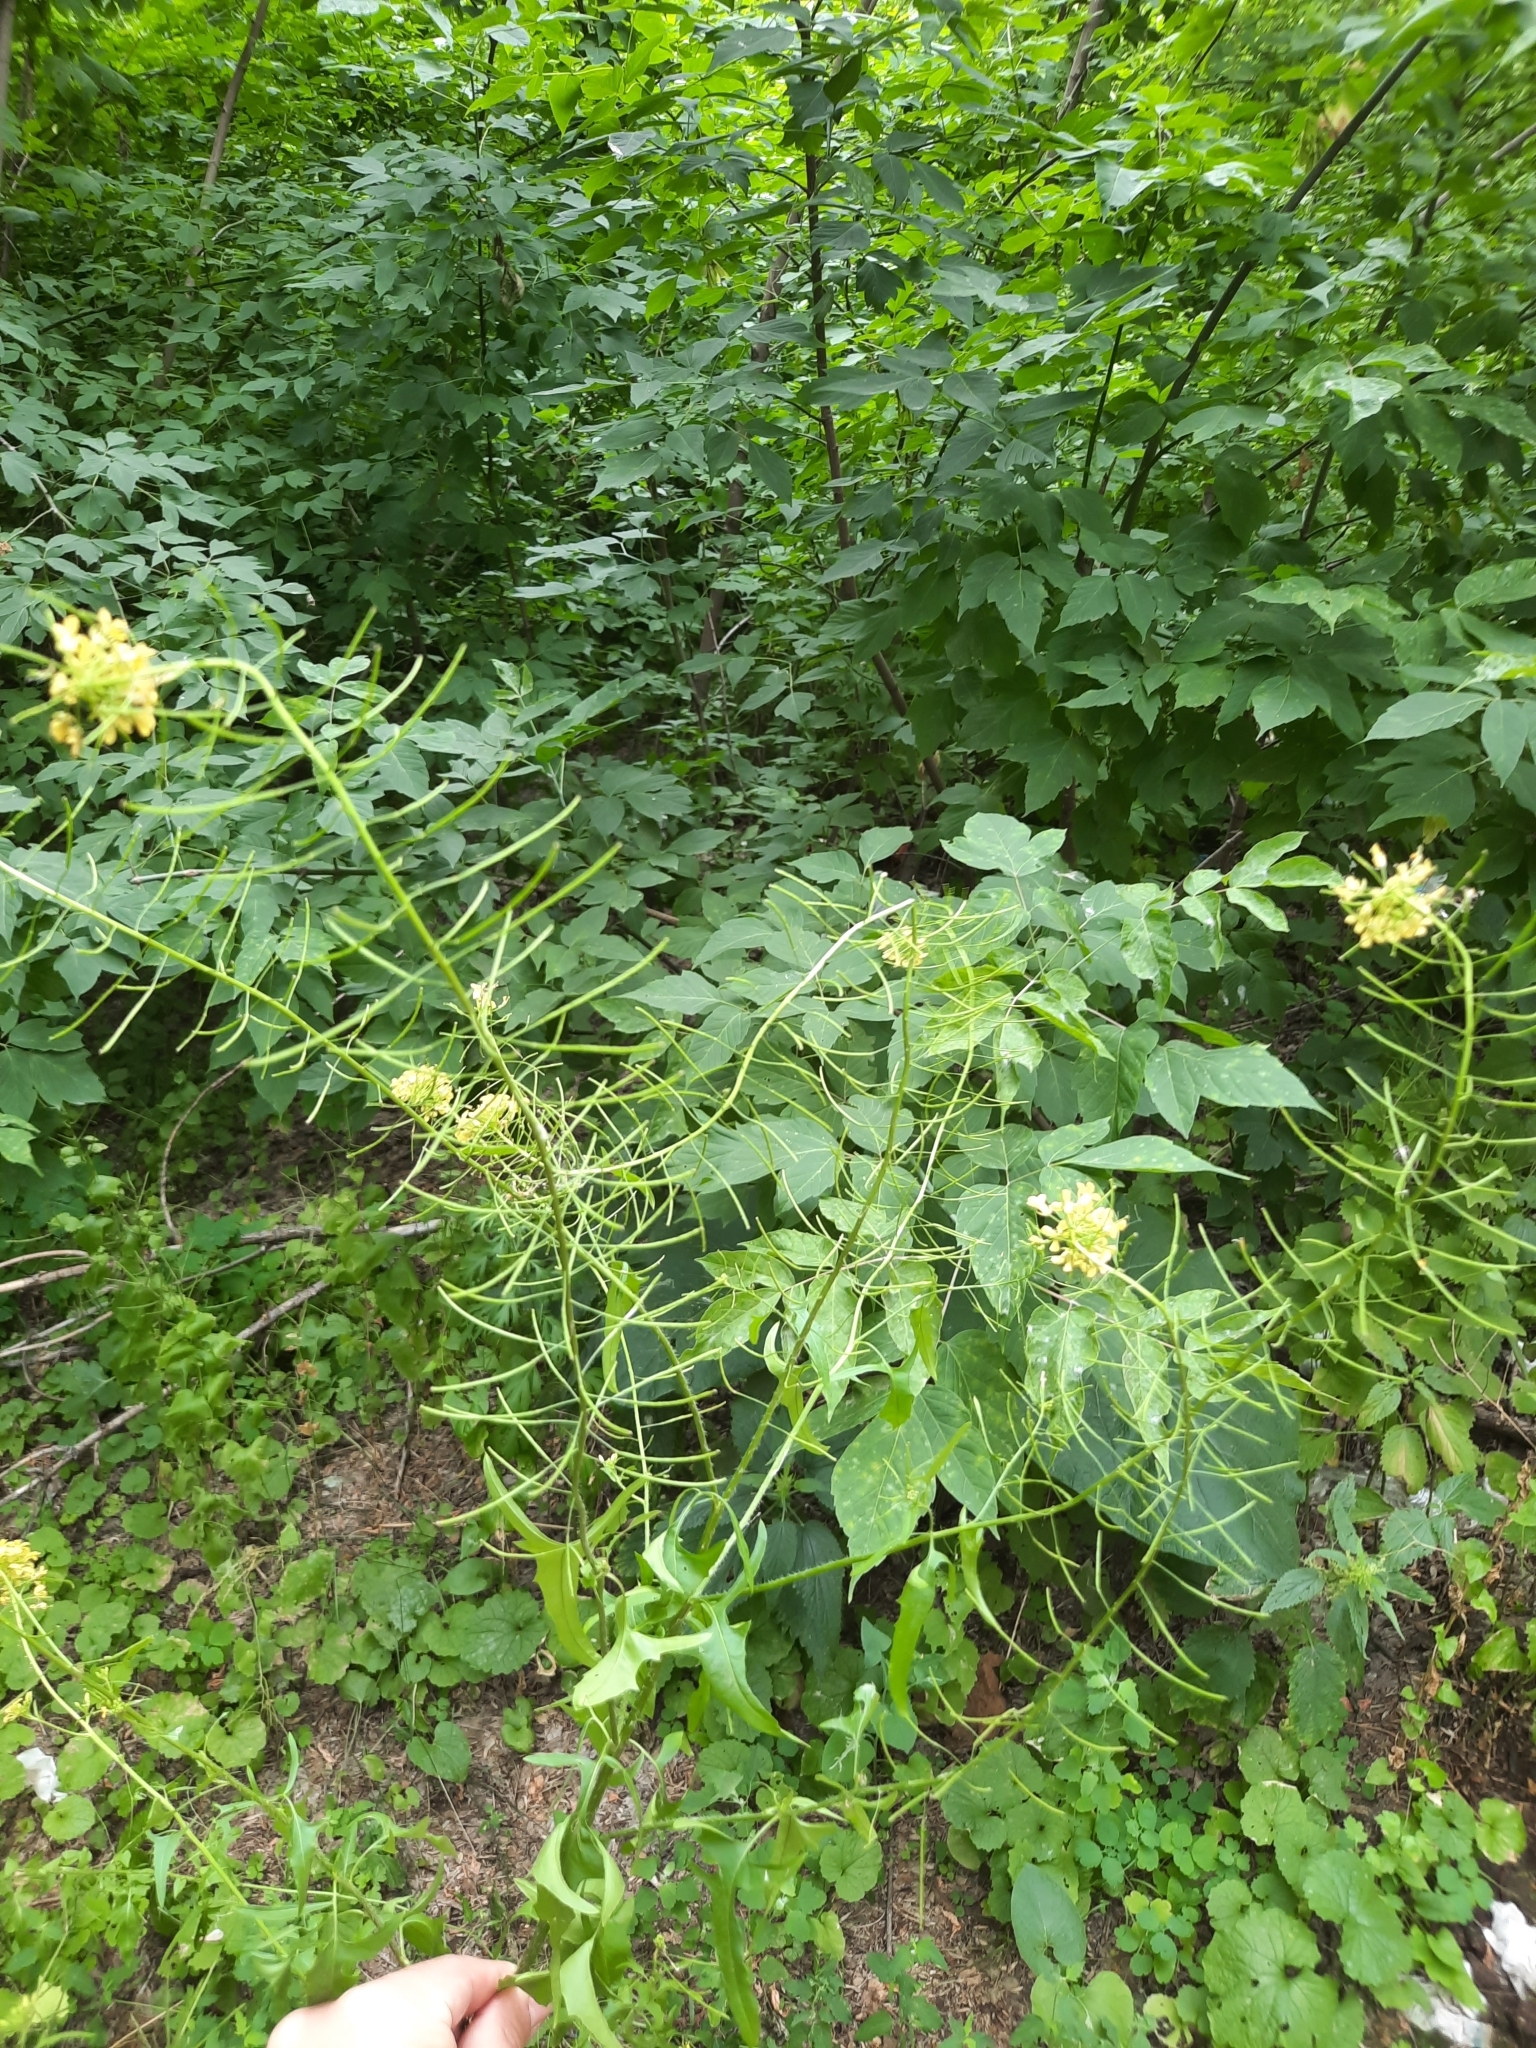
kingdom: Plantae
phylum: Tracheophyta
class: Magnoliopsida
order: Brassicales
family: Brassicaceae
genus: Sisymbrium
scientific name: Sisymbrium loeselii
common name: False london-rocket
